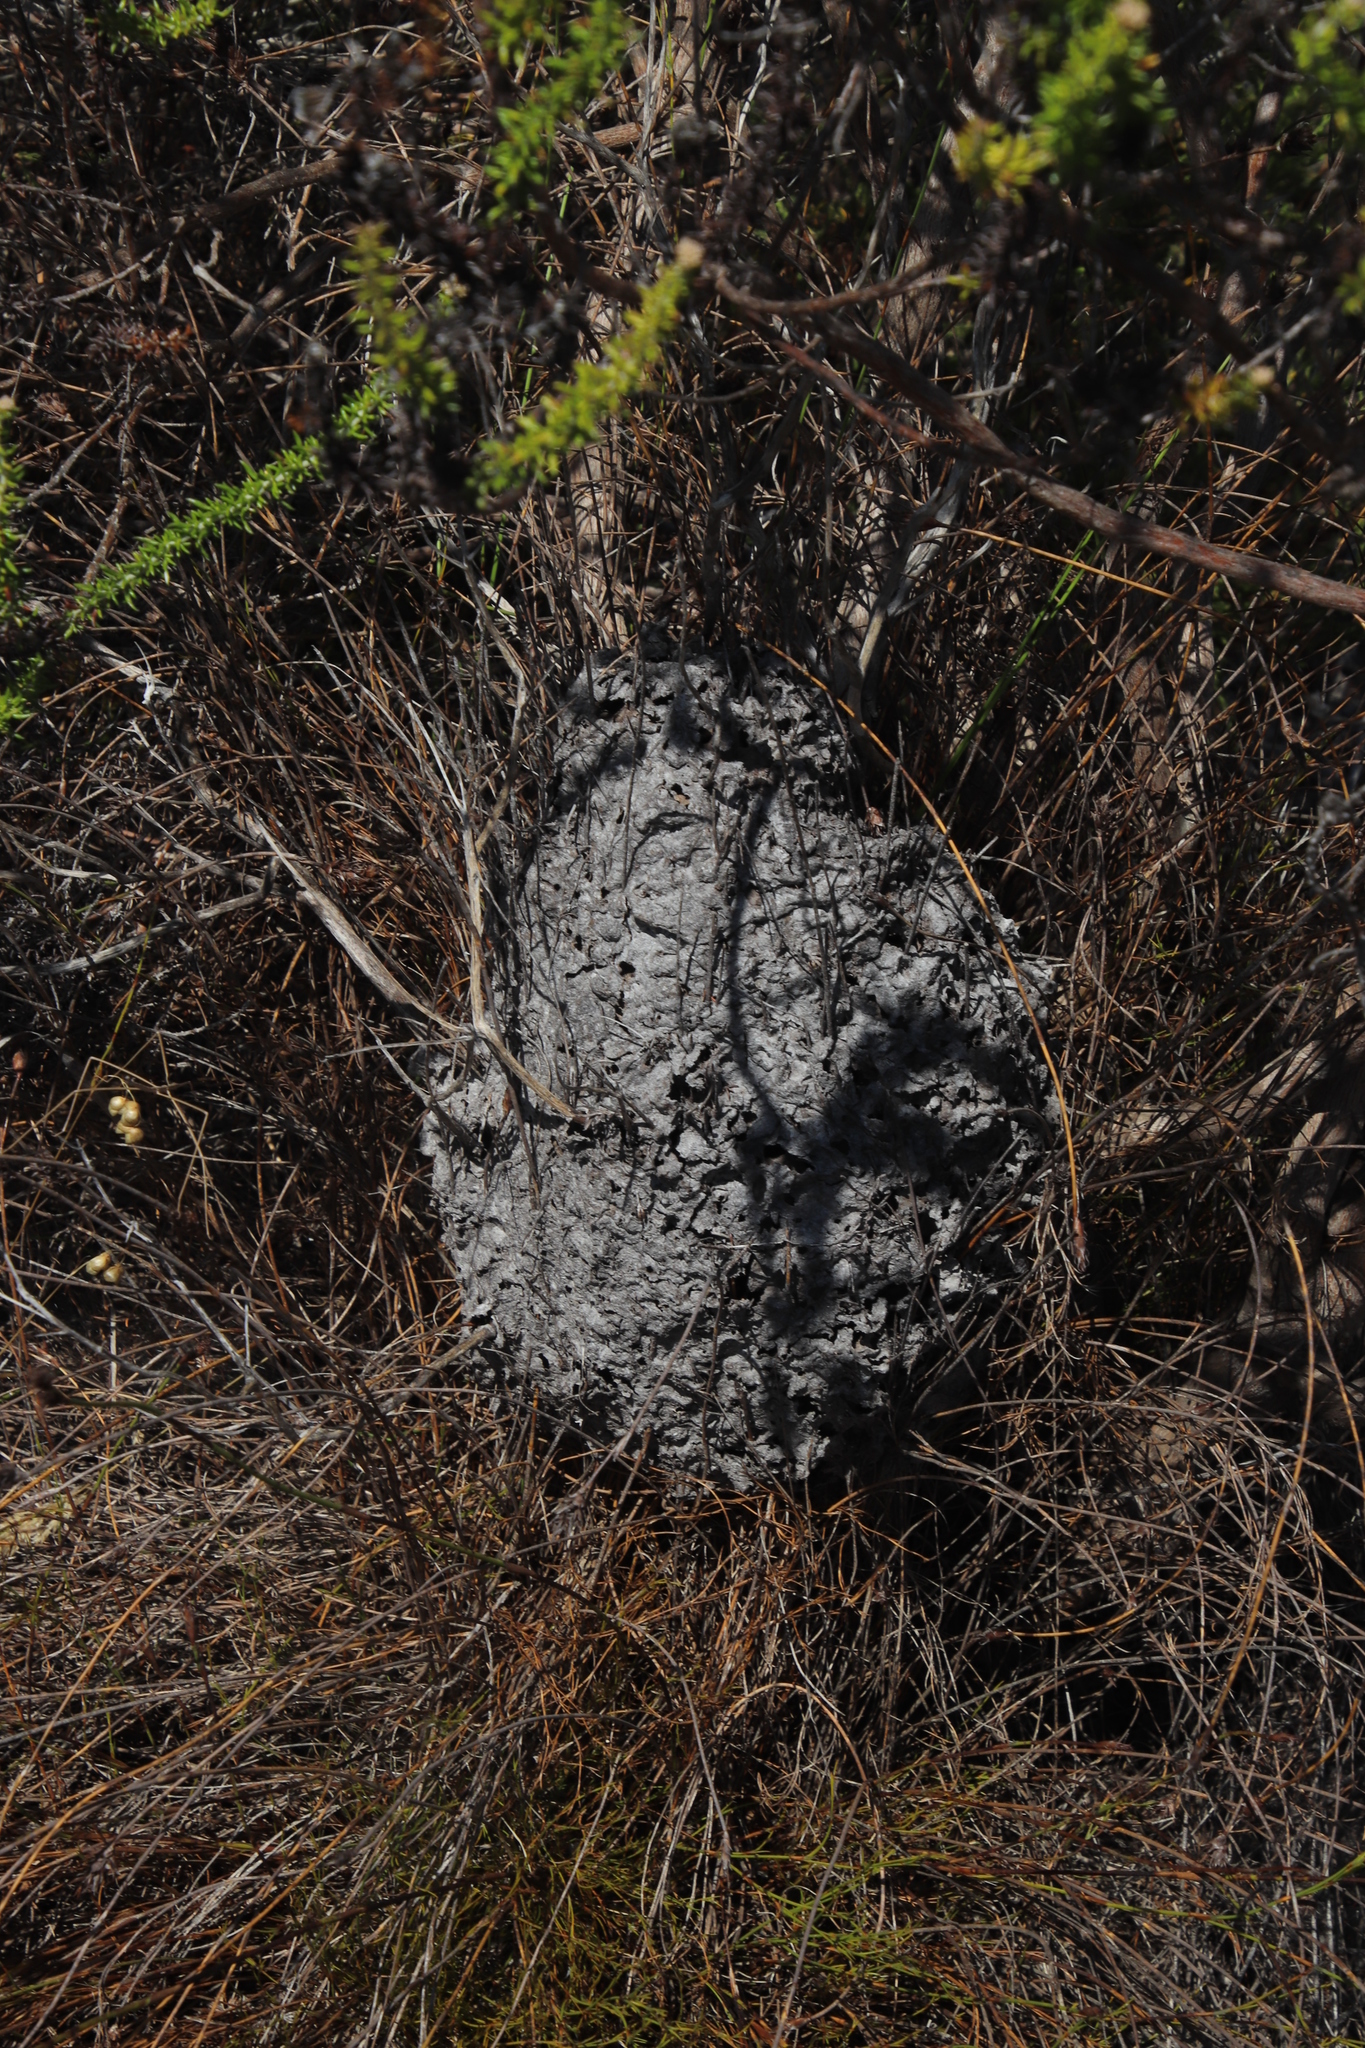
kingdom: Animalia
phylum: Arthropoda
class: Insecta
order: Hymenoptera
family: Formicidae
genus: Crematogaster
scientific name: Crematogaster peringueyi
